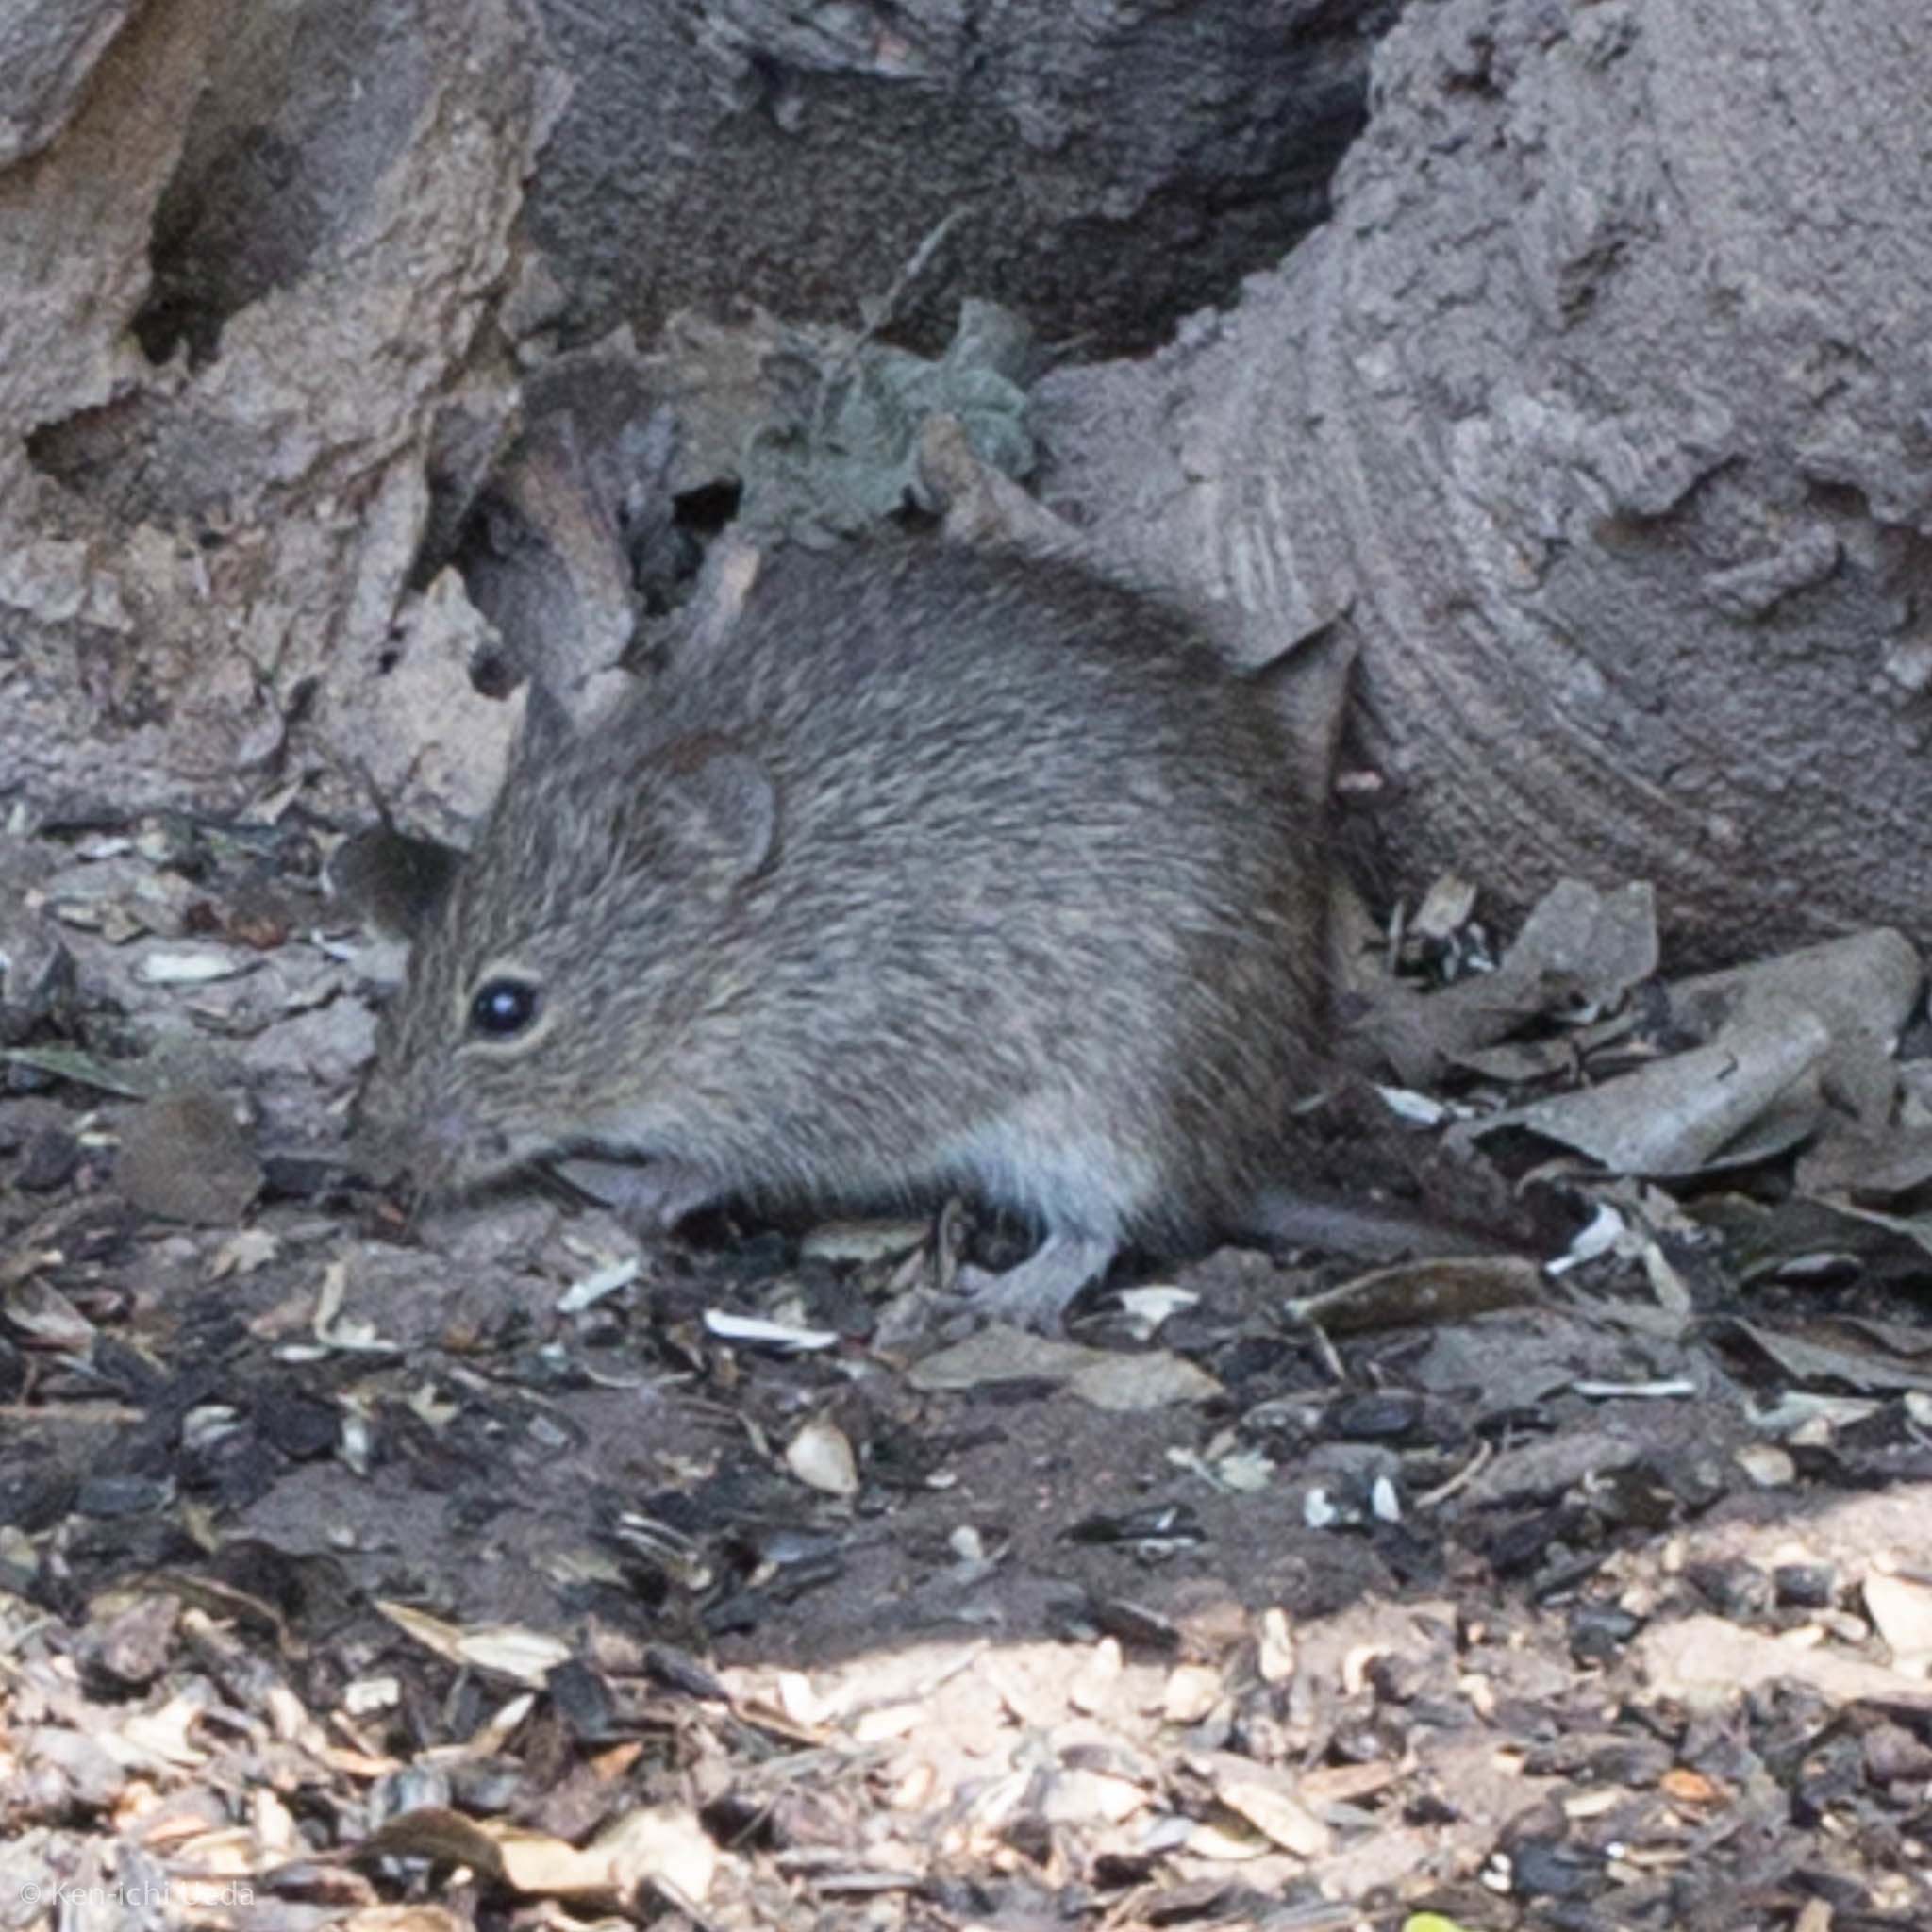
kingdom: Animalia
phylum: Chordata
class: Mammalia
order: Rodentia
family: Cricetidae
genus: Sigmodon
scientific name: Sigmodon hispidus
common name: Hispid cotton rat
